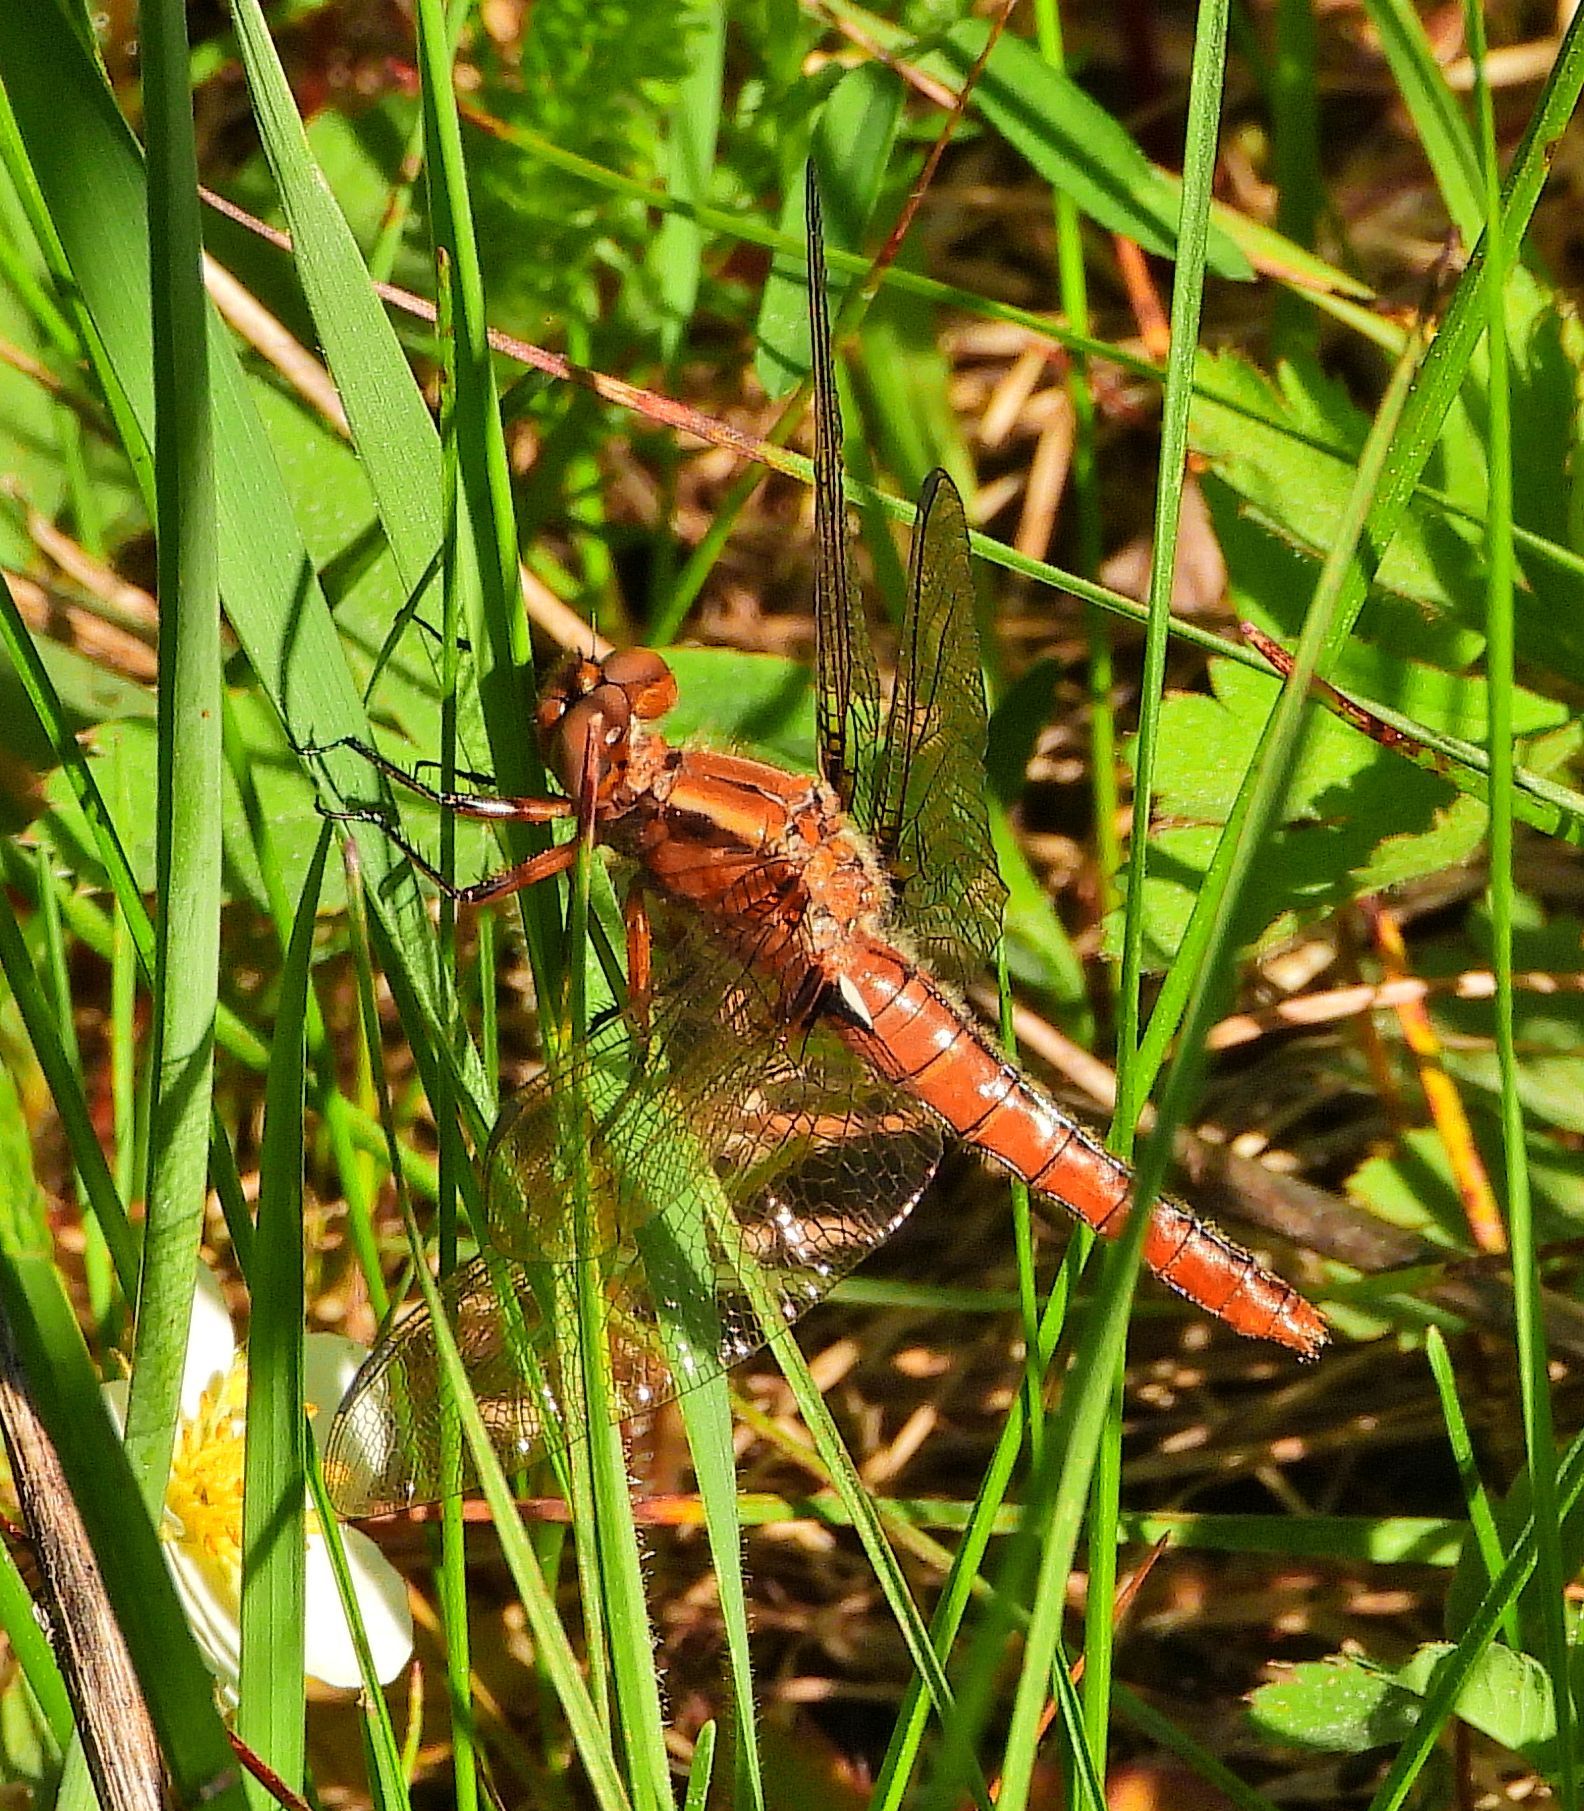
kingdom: Animalia
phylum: Arthropoda
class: Insecta
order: Odonata
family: Libellulidae
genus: Ladona
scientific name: Ladona julia
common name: Chalk-fronted corporal
